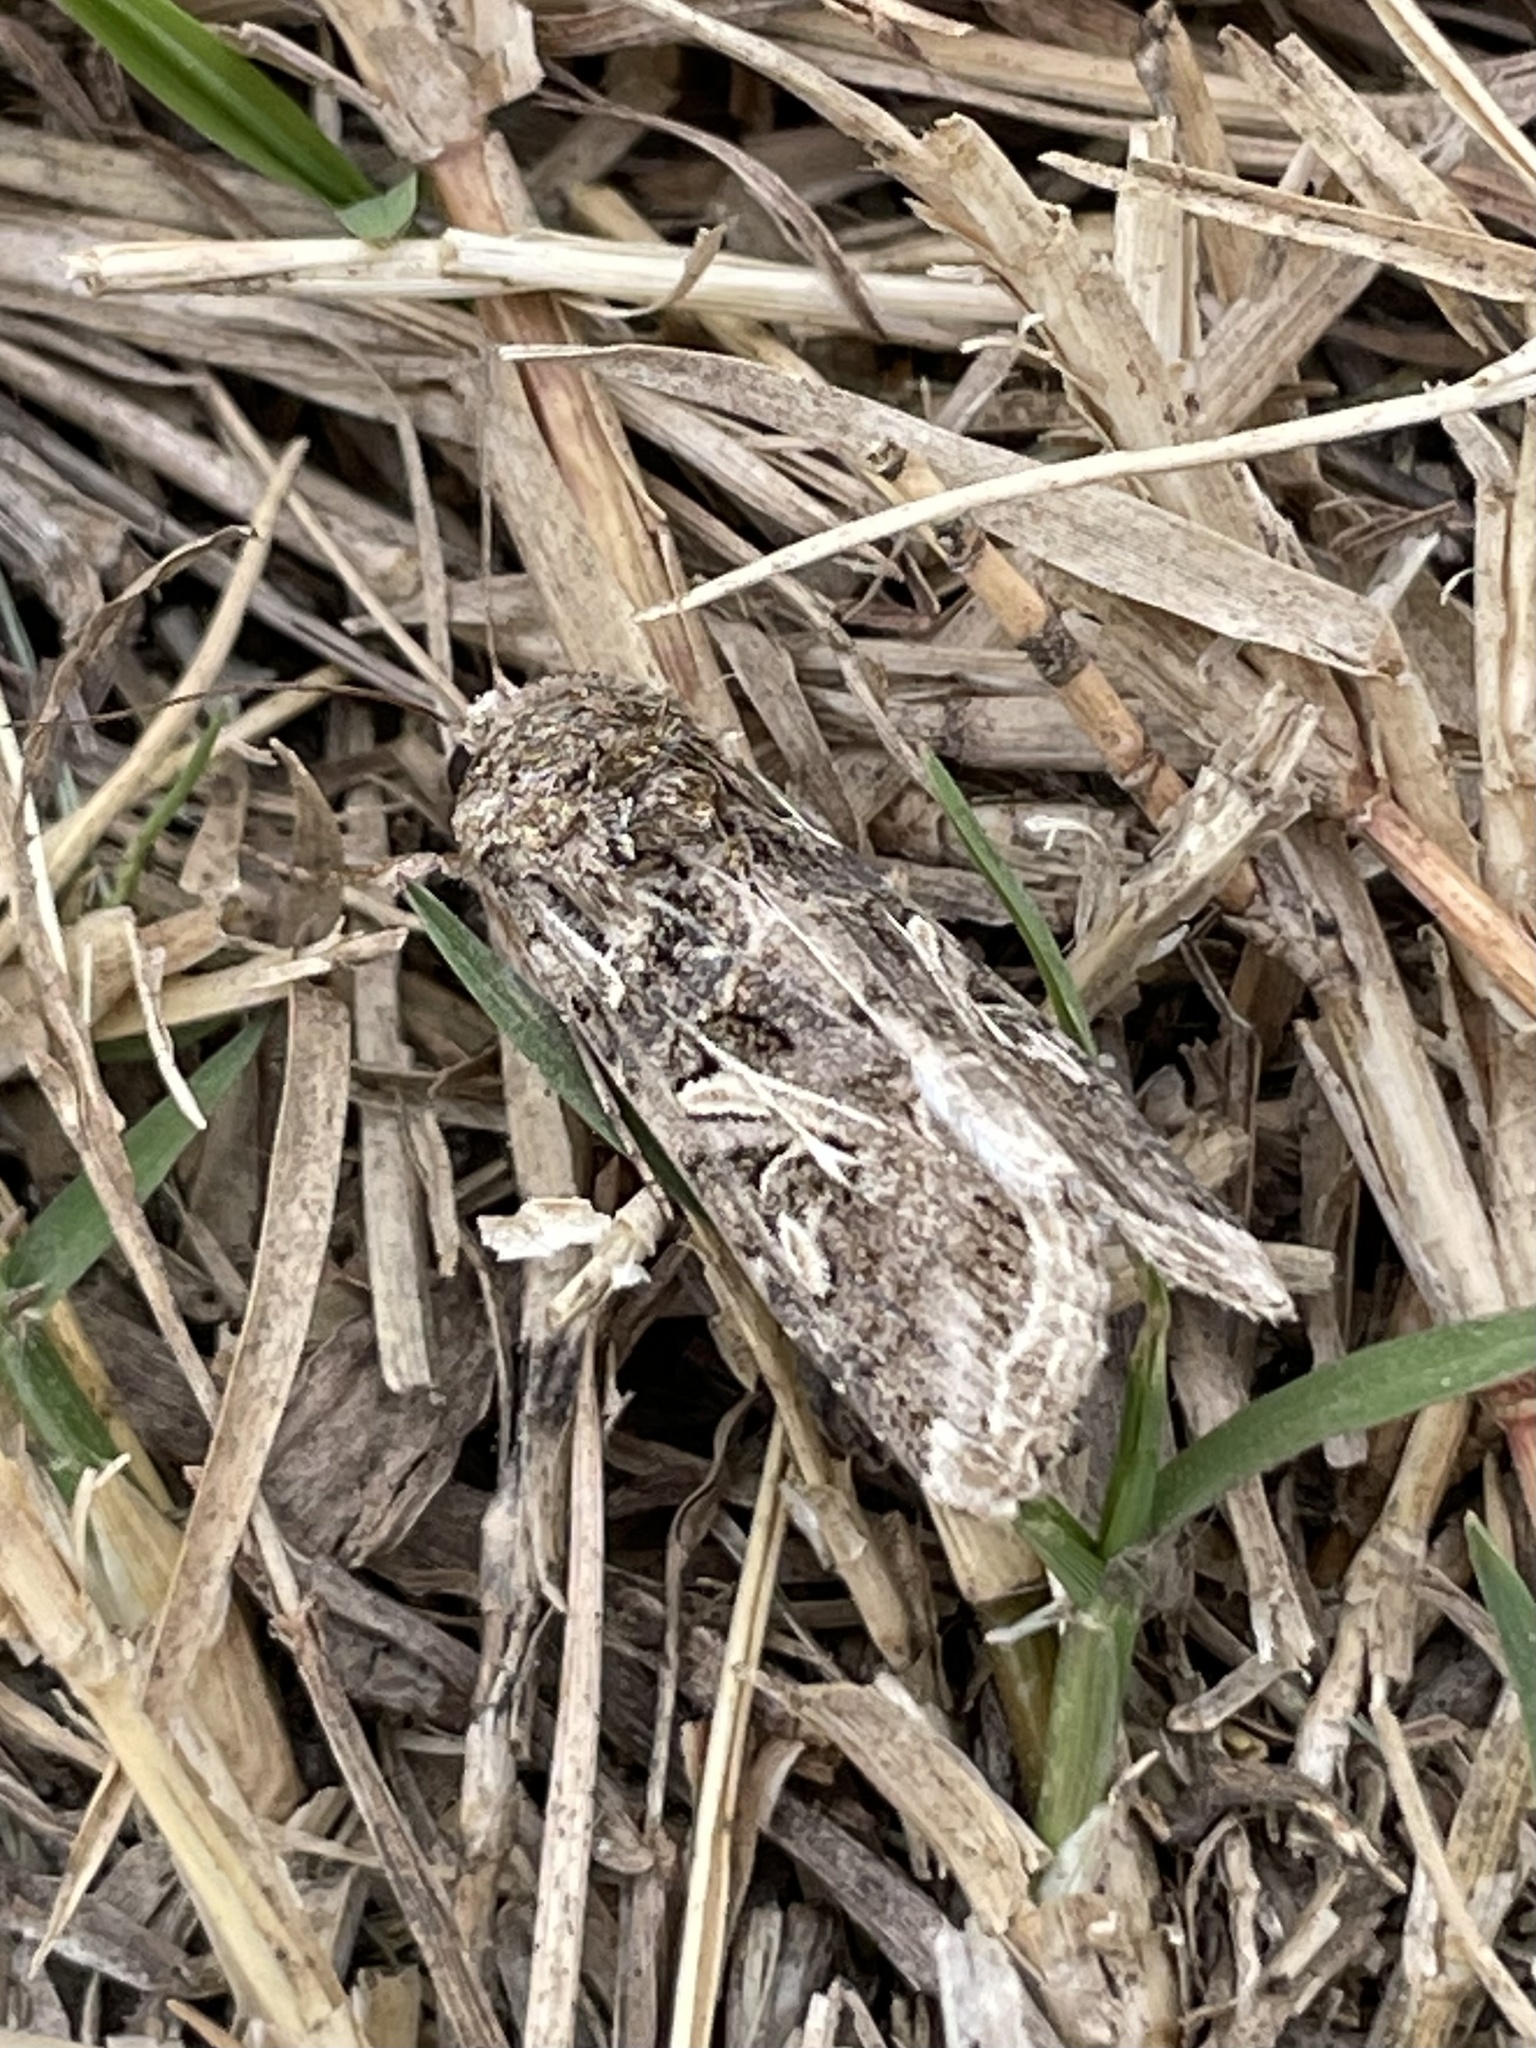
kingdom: Animalia
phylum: Arthropoda
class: Insecta
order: Lepidoptera
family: Noctuidae
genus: Spodoptera
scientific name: Spodoptera ornithogalli
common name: Yellow-striped armyworm
